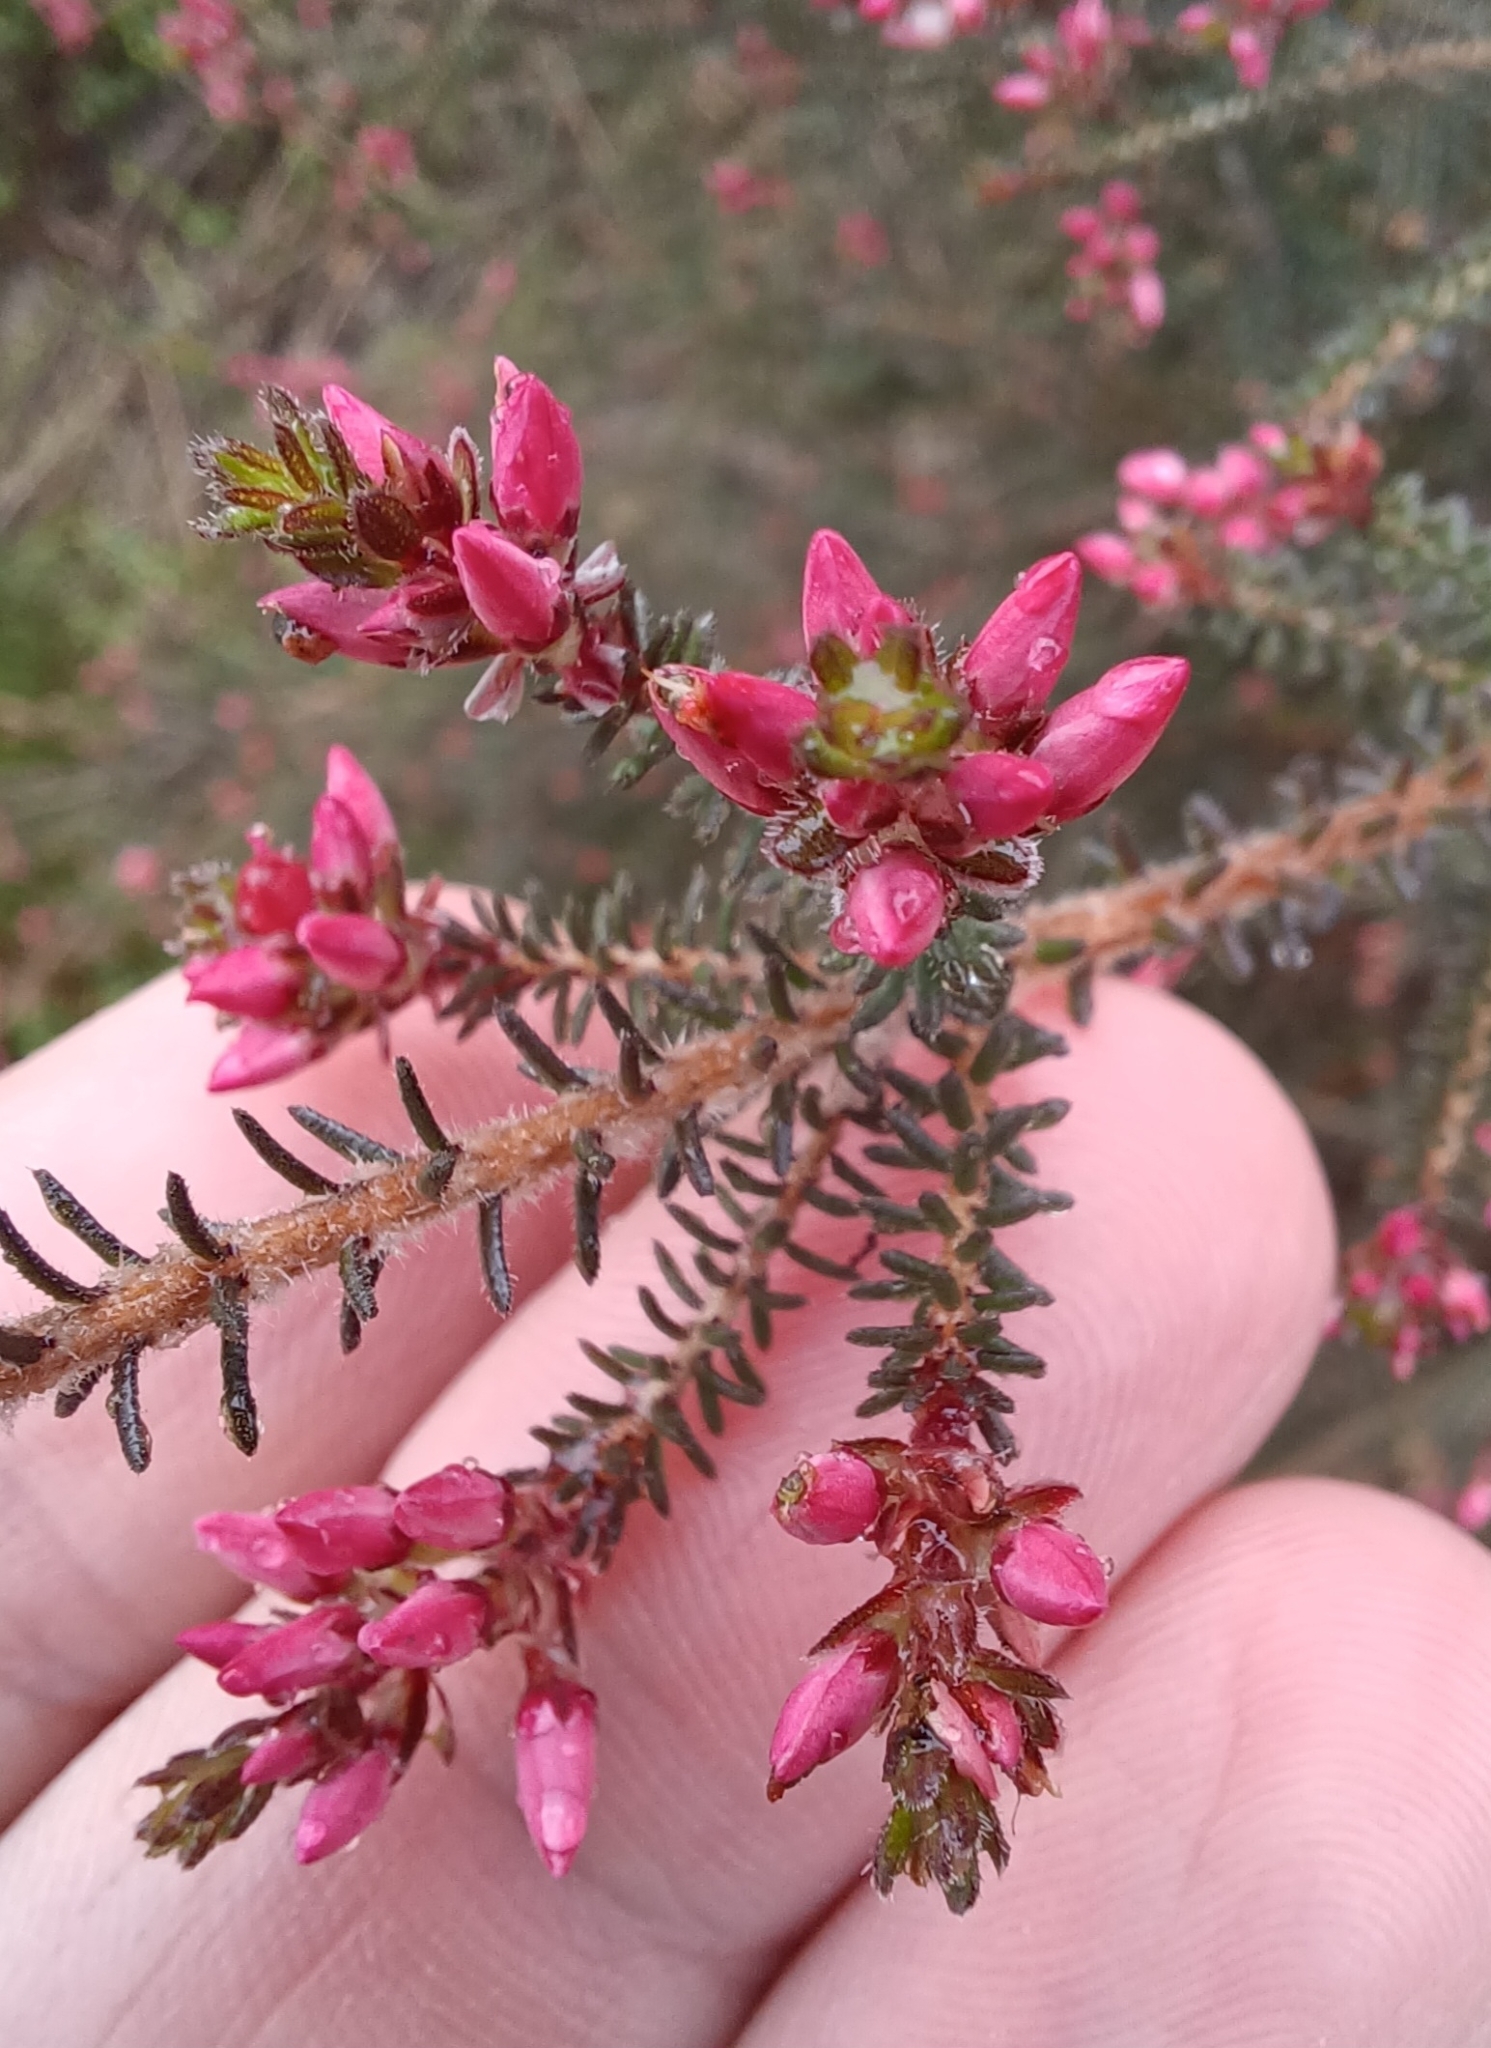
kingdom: Plantae
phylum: Tracheophyta
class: Magnoliopsida
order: Myrtales
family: Myrtaceae
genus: Calytrix
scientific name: Calytrix alpestris
